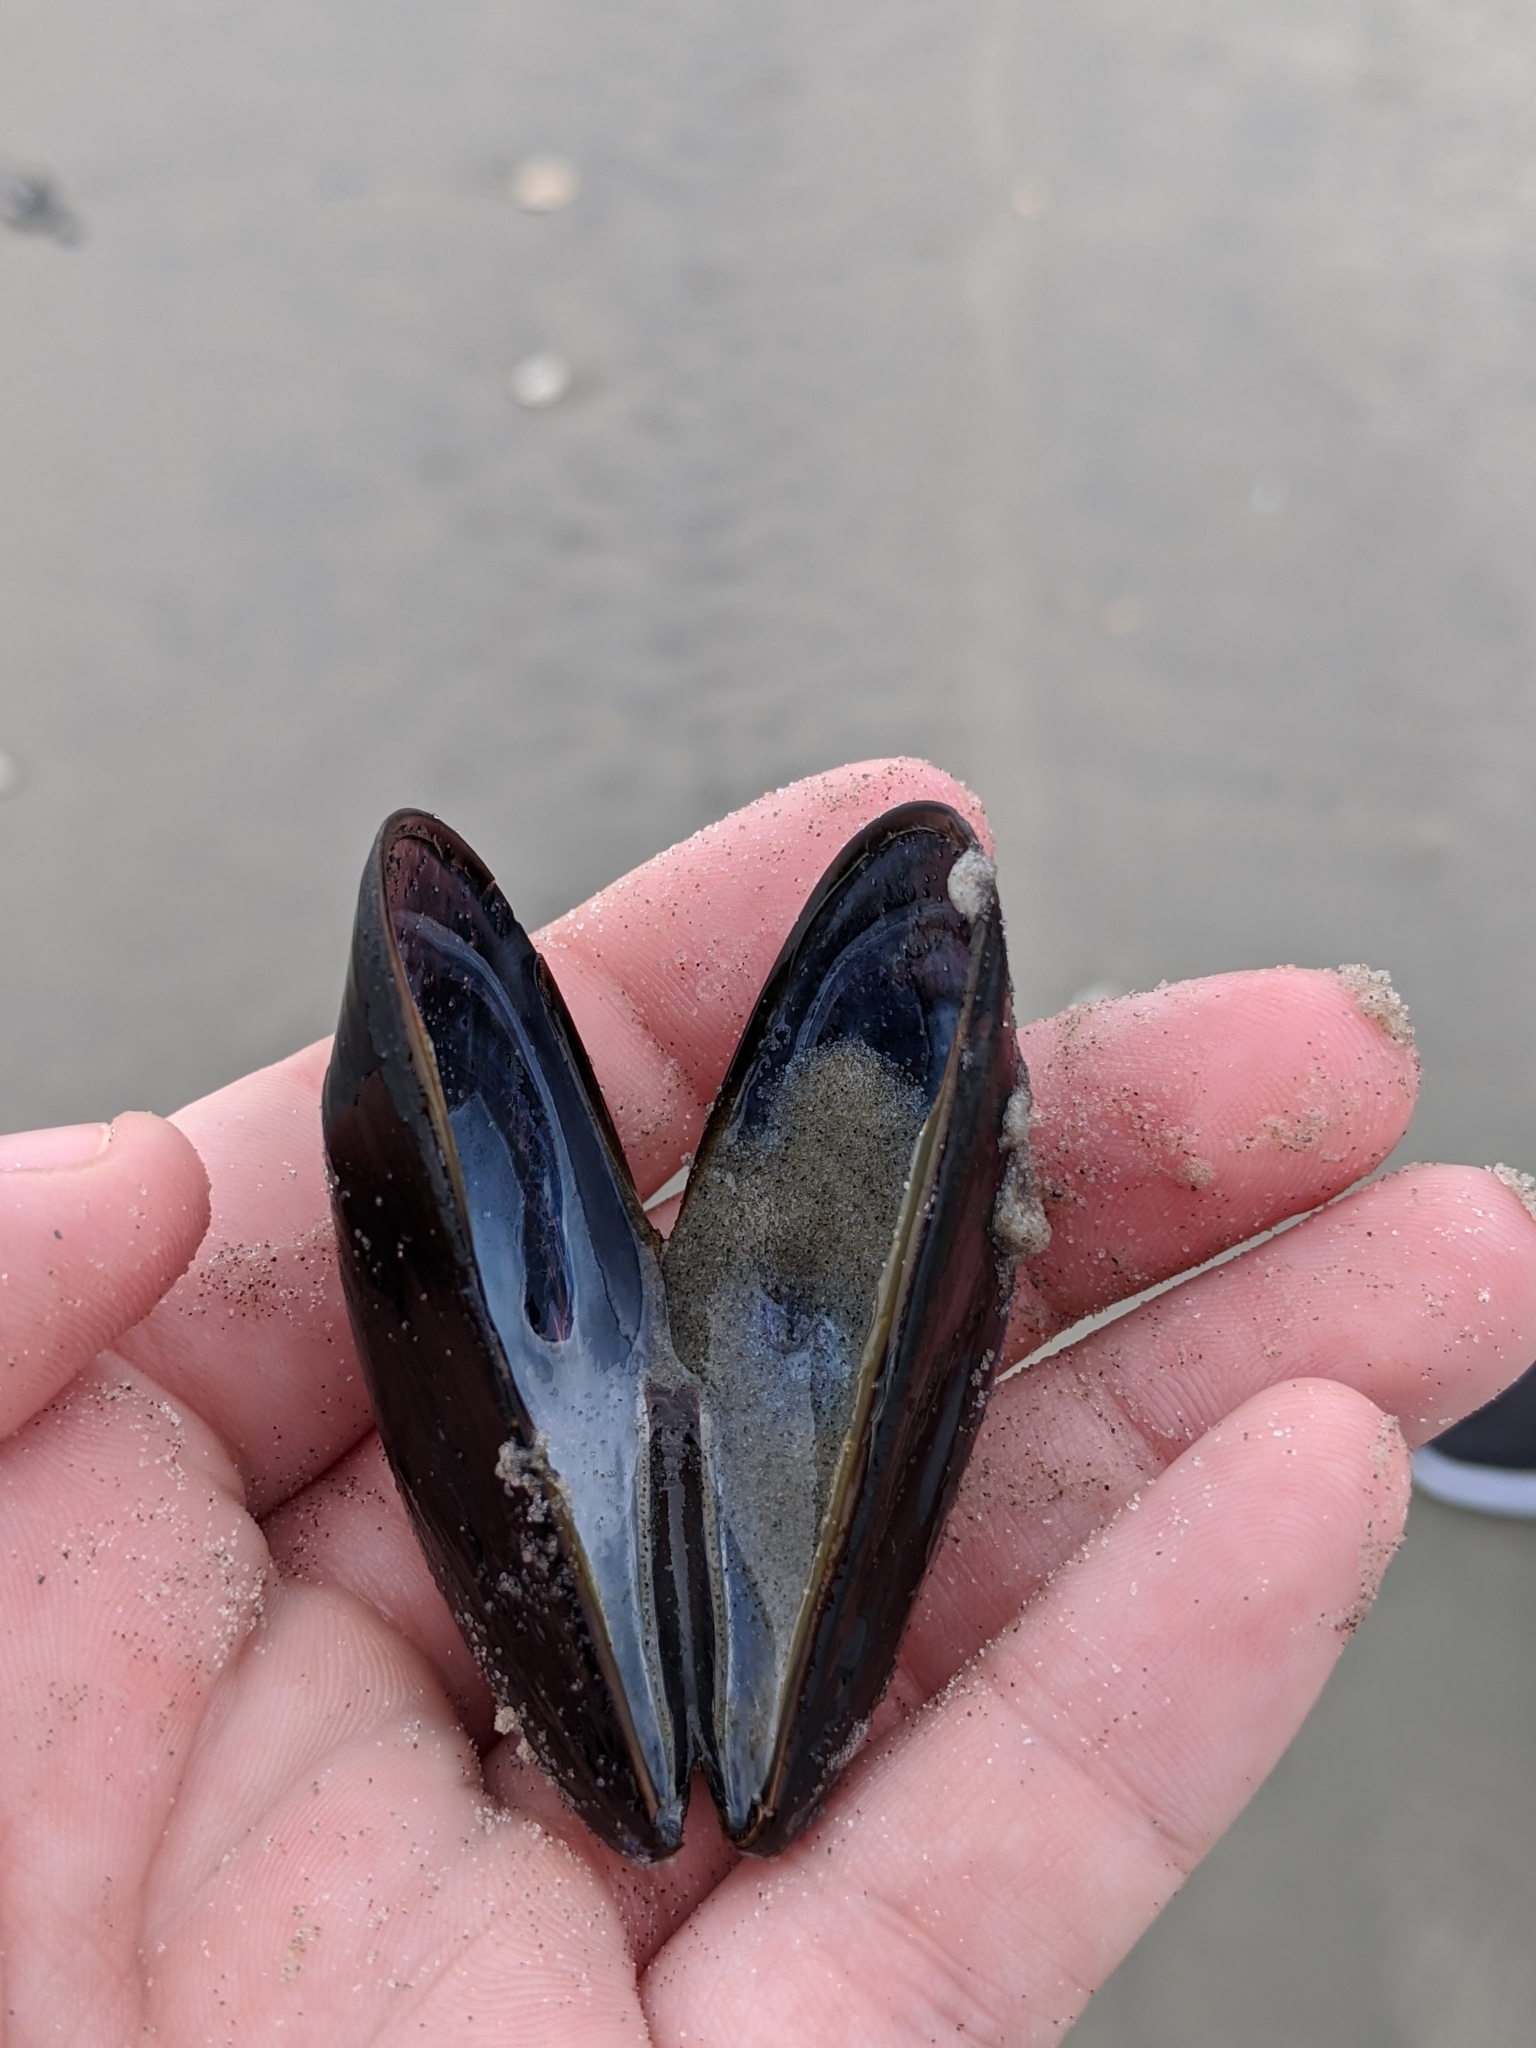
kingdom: Animalia
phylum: Mollusca
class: Bivalvia
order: Mytilida
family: Mytilidae
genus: Mytilus
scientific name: Mytilus edulis
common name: Blue mussel
